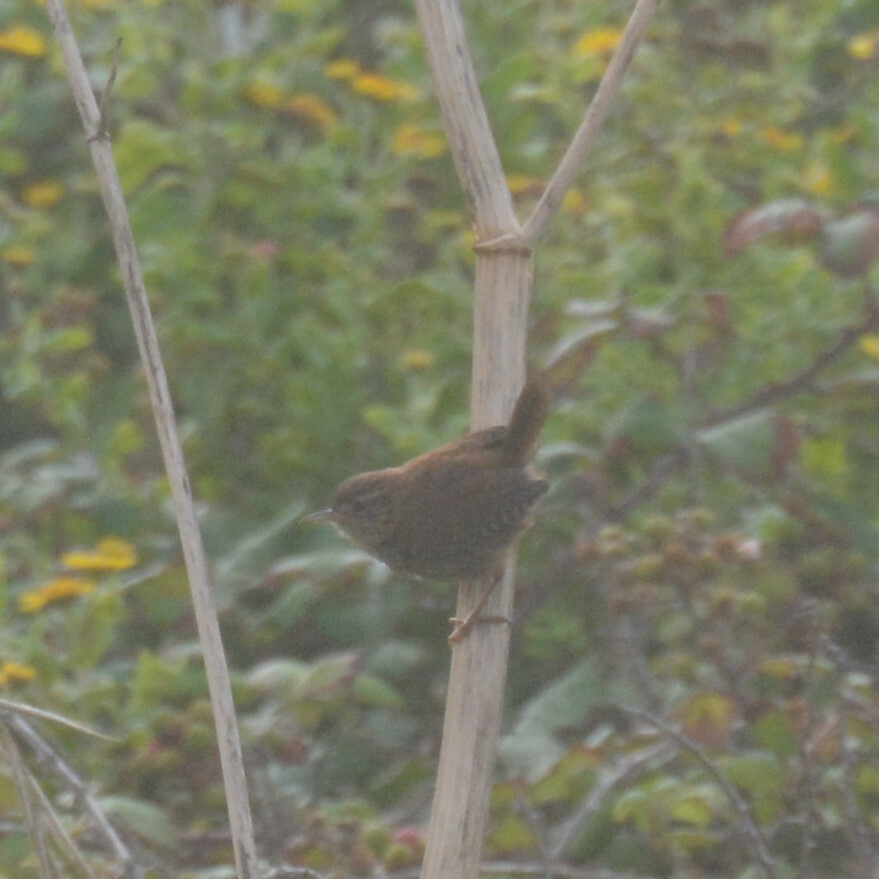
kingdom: Animalia
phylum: Chordata
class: Aves
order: Passeriformes
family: Troglodytidae
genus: Troglodytes
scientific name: Troglodytes troglodytes
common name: Eurasian wren
